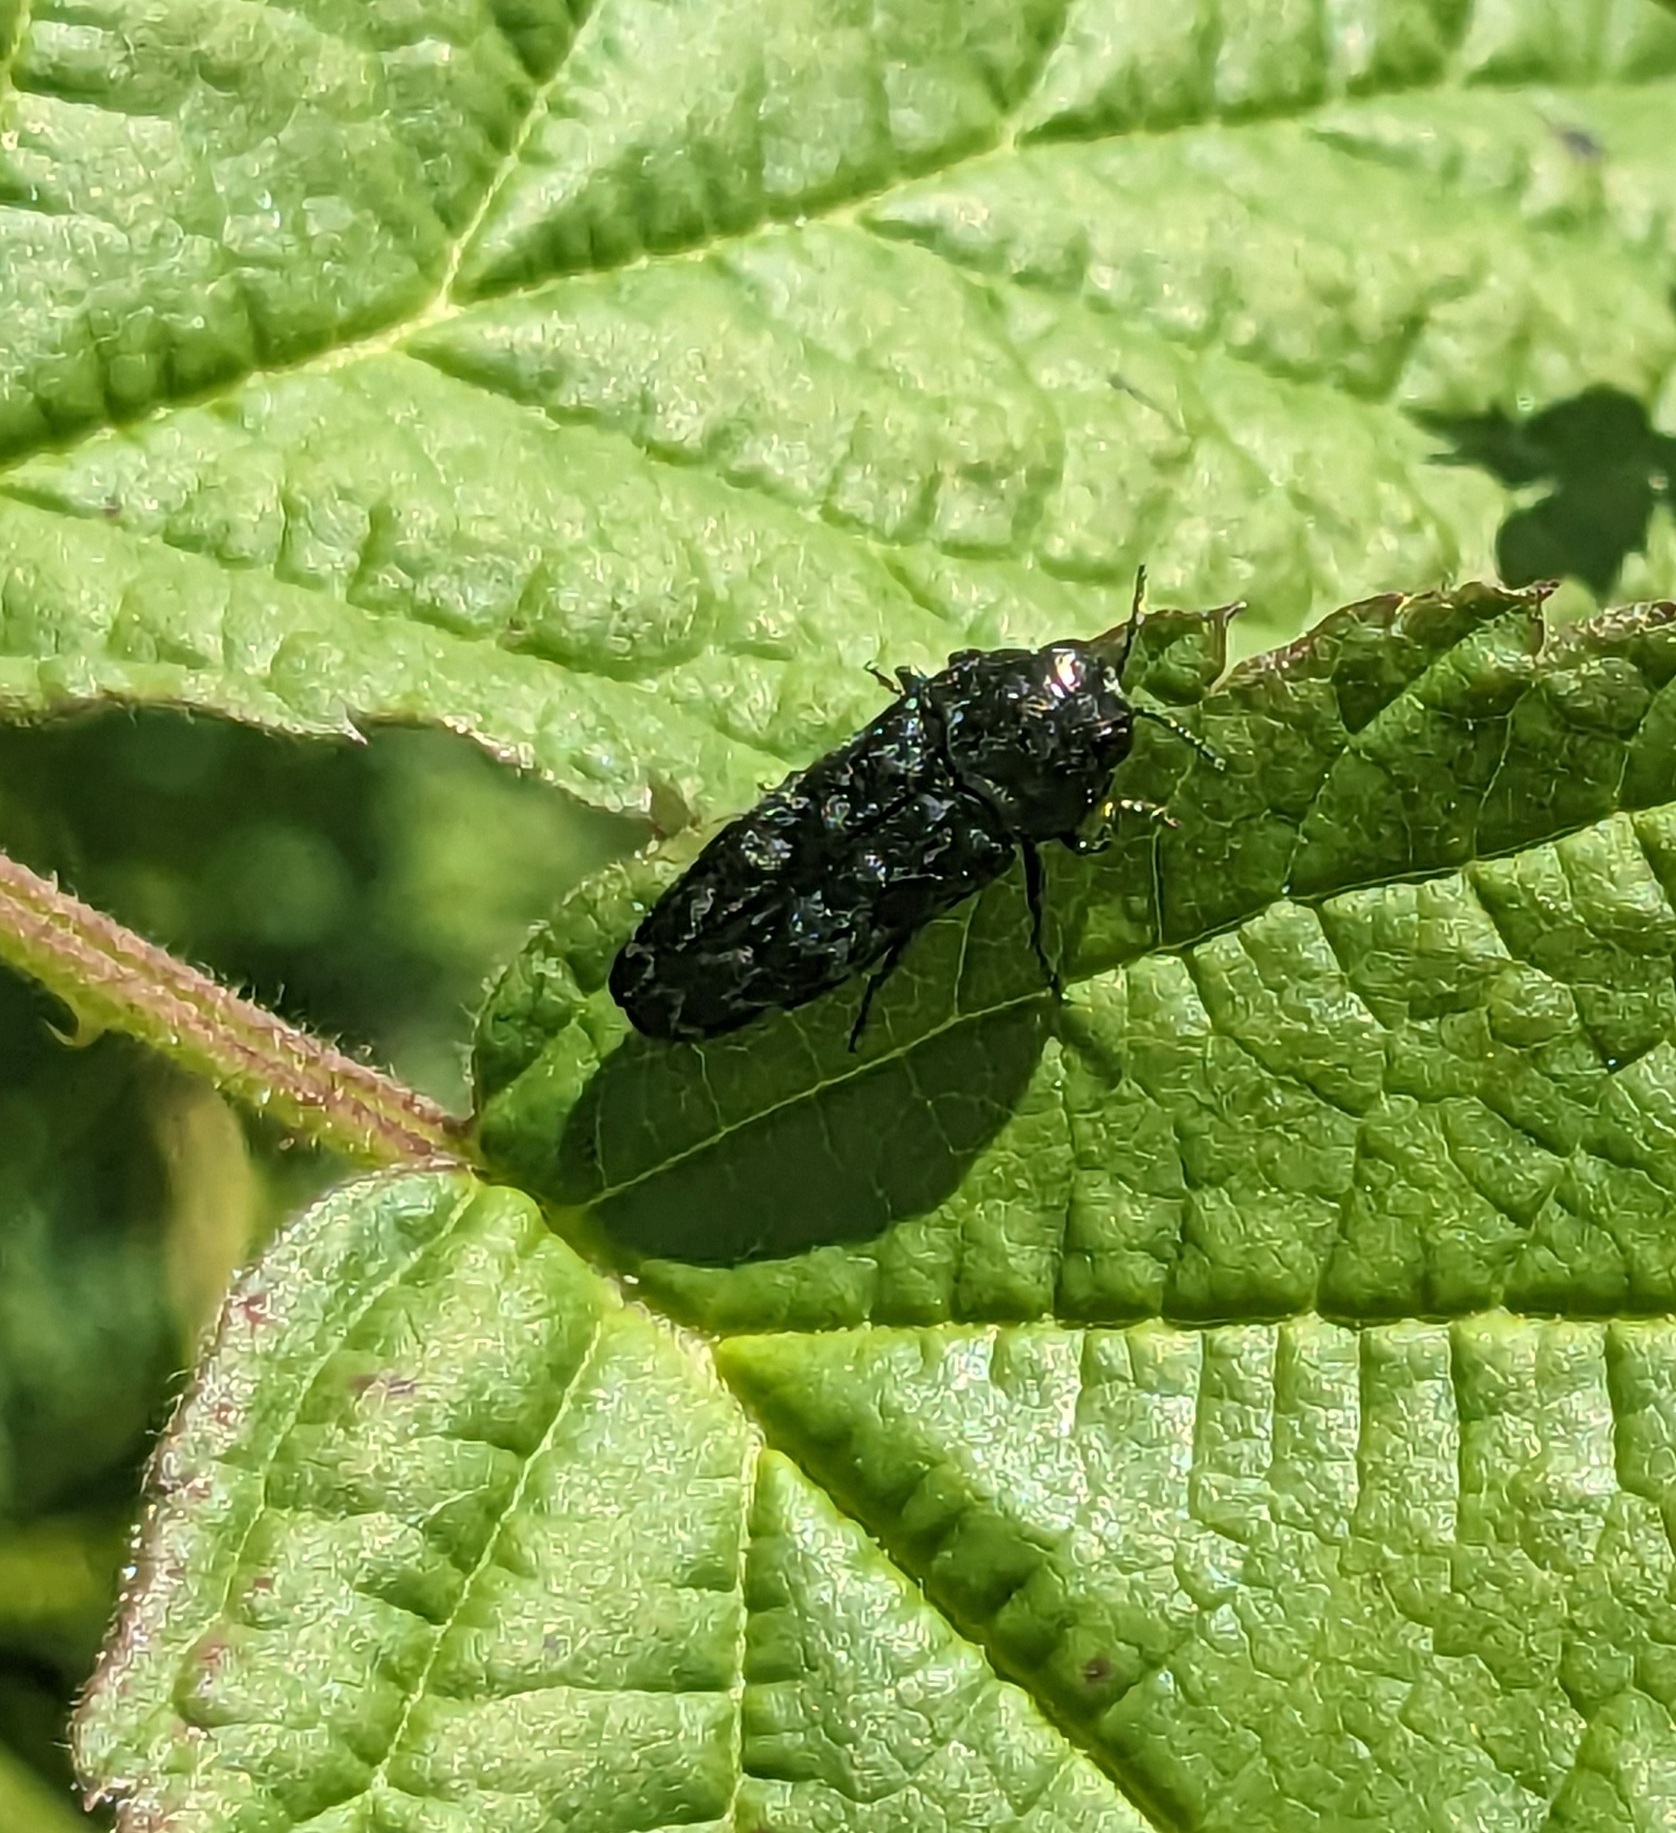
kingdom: Animalia
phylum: Arthropoda
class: Insecta
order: Coleoptera
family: Buprestidae
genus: Coraebus
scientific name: Coraebus rubi
